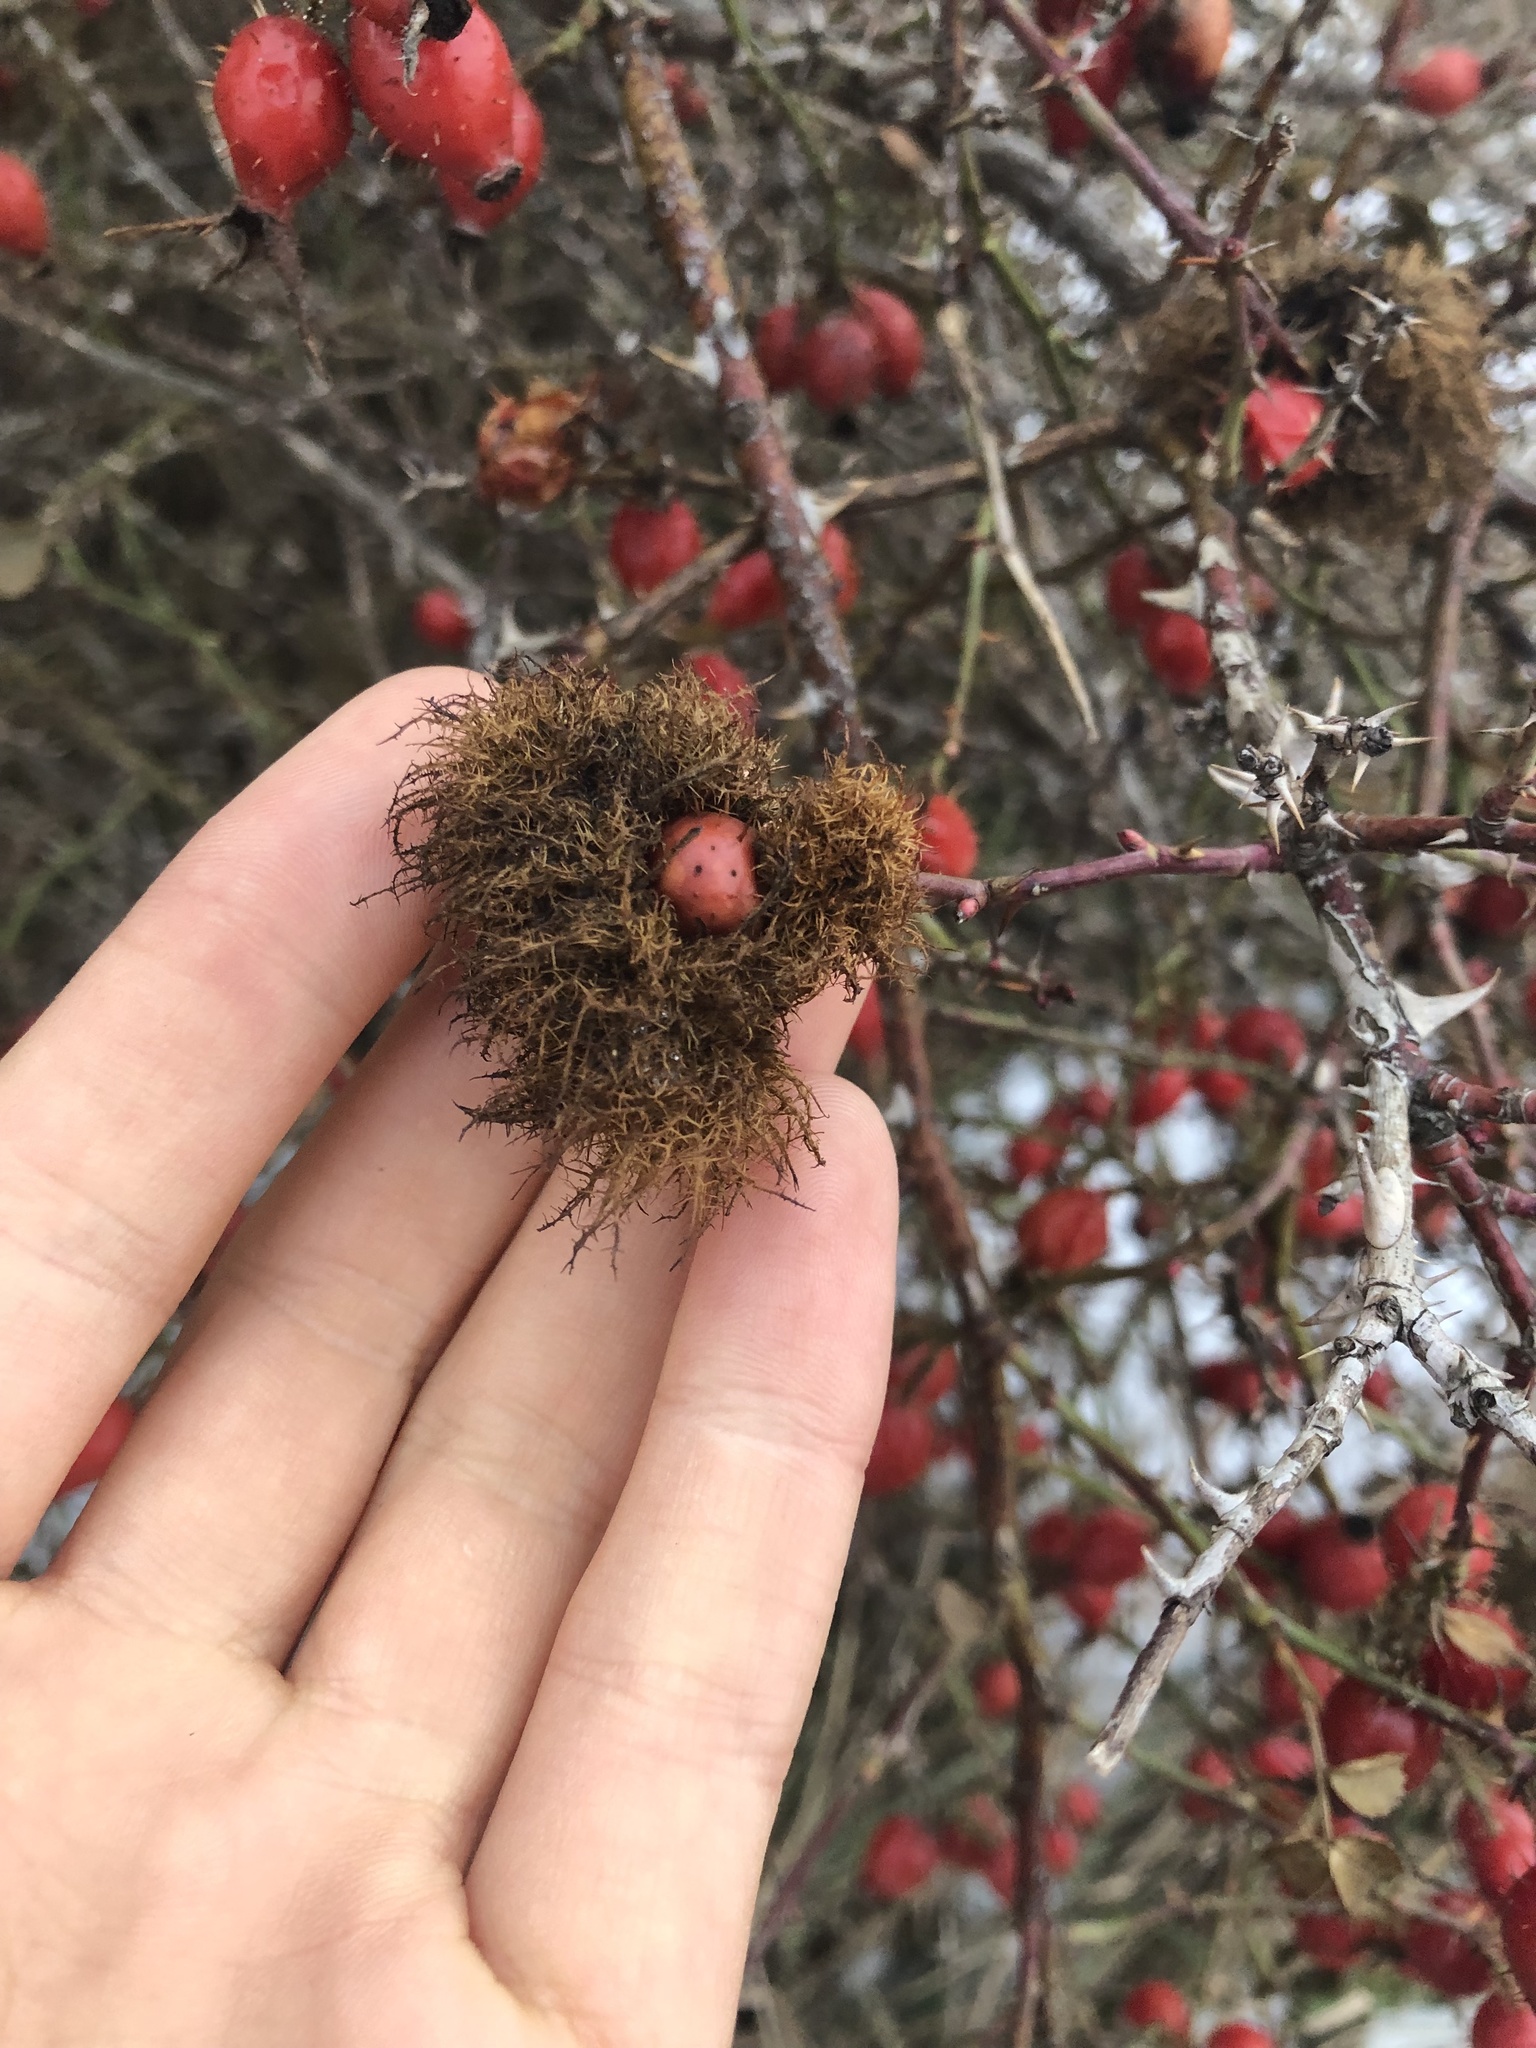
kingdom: Animalia
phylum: Arthropoda
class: Insecta
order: Hymenoptera
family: Cynipidae
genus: Diplolepis
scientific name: Diplolepis rosae
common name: Bedeguar gall
